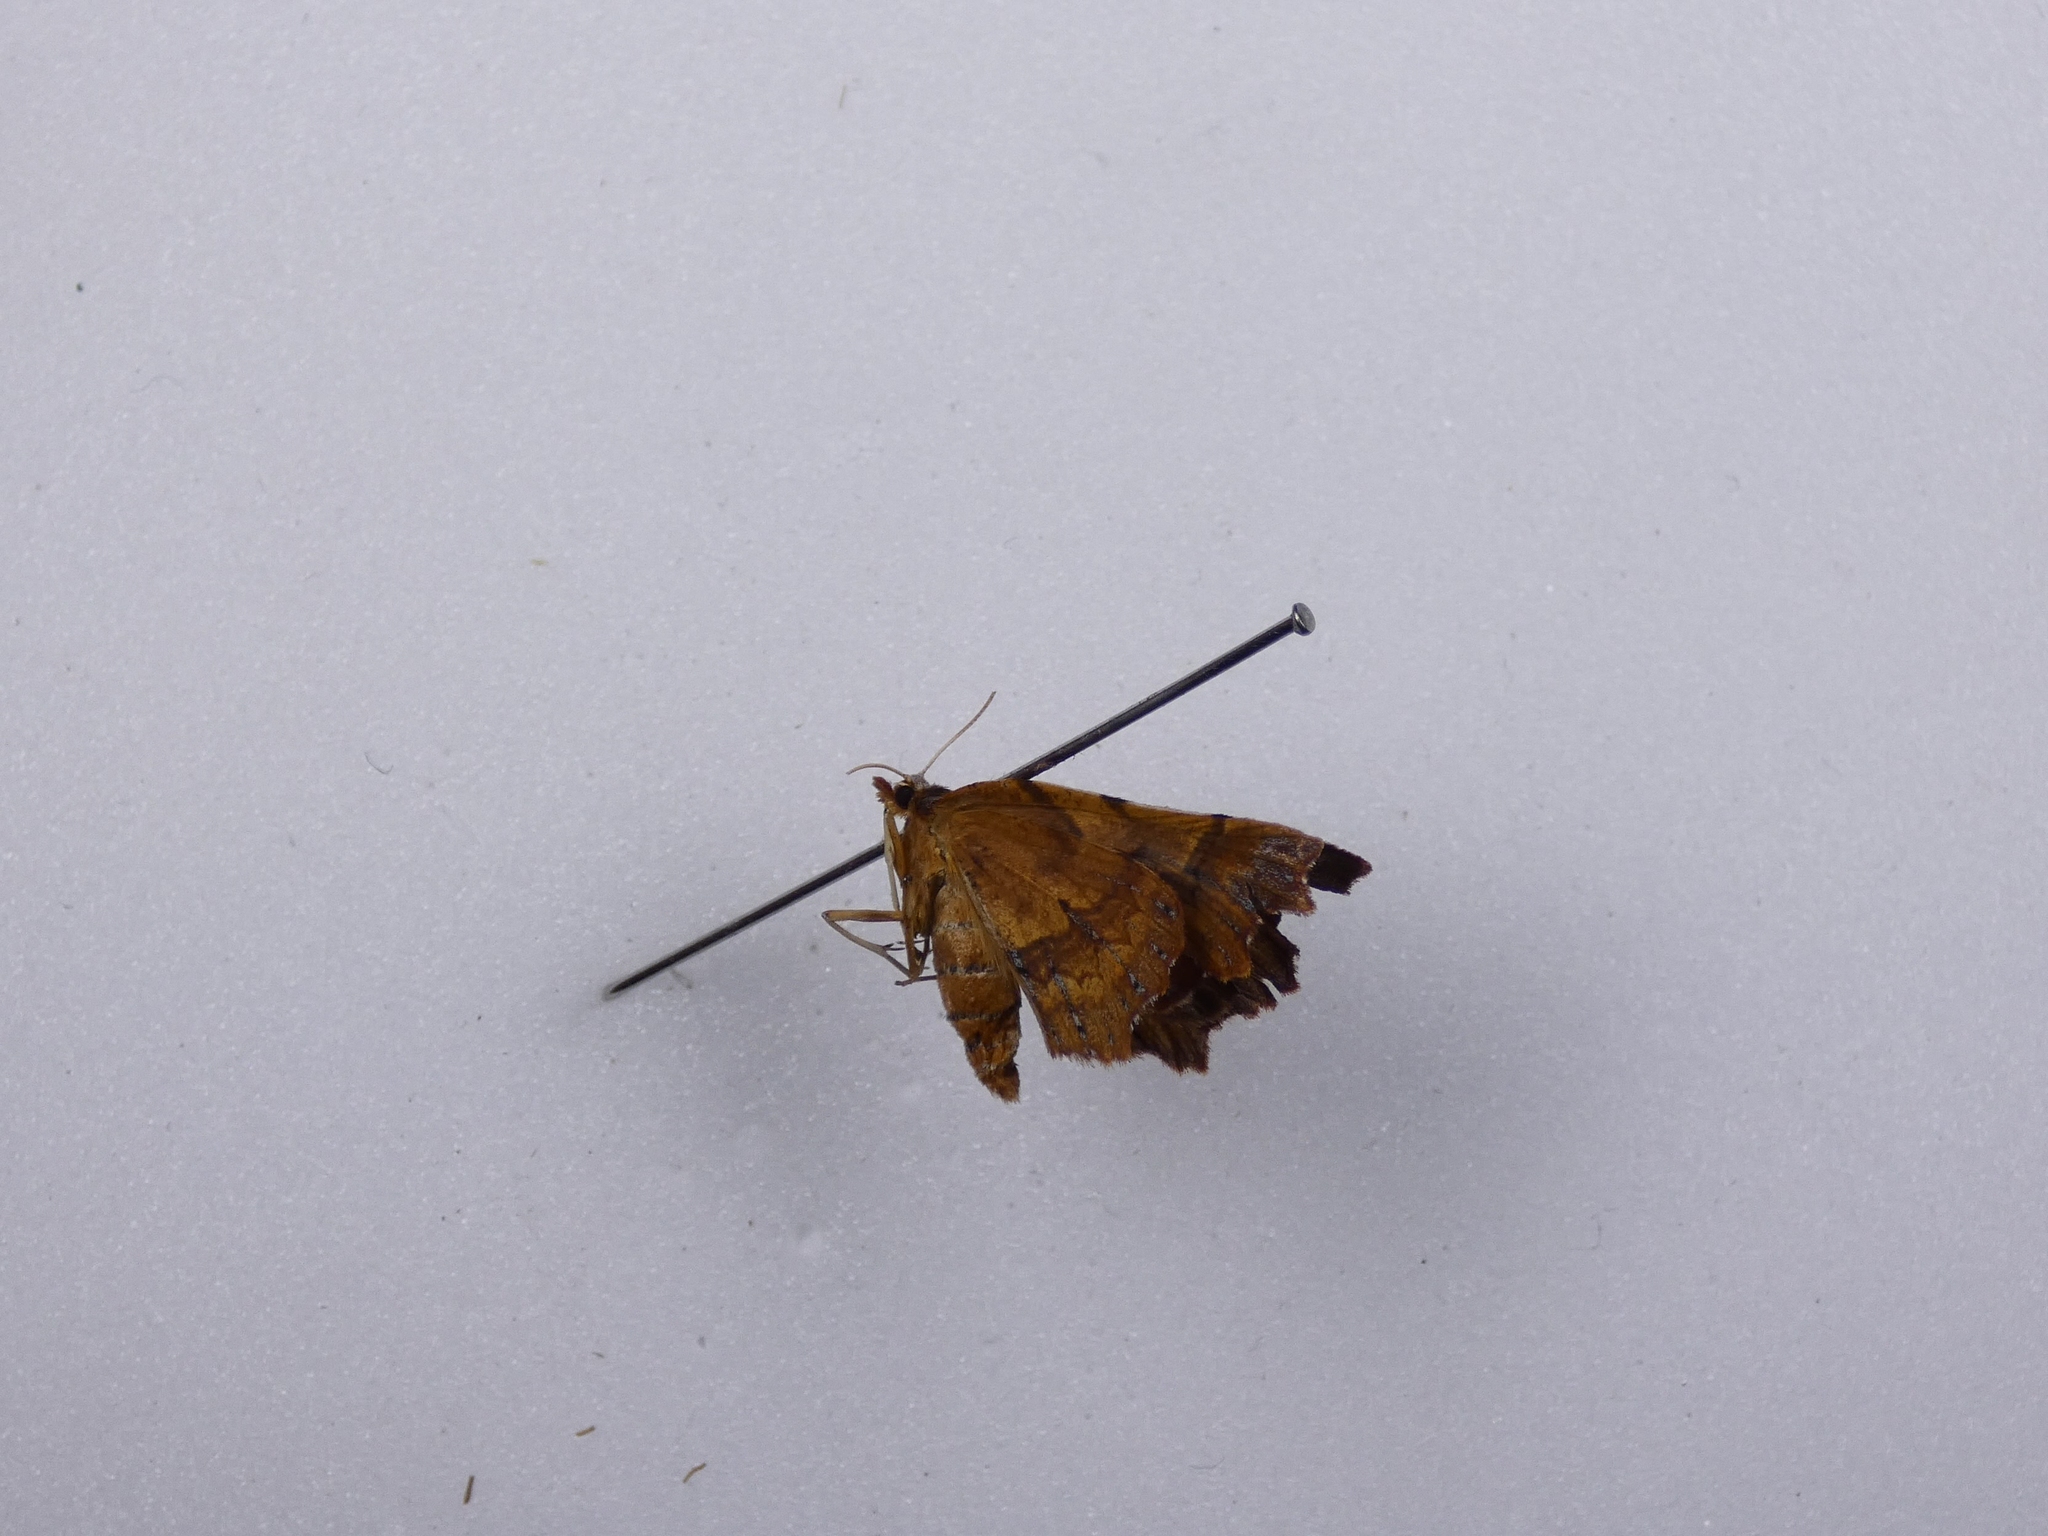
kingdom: Animalia
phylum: Arthropoda
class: Insecta
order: Lepidoptera
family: Geometridae
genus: Ischalis
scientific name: Ischalis fortinata
